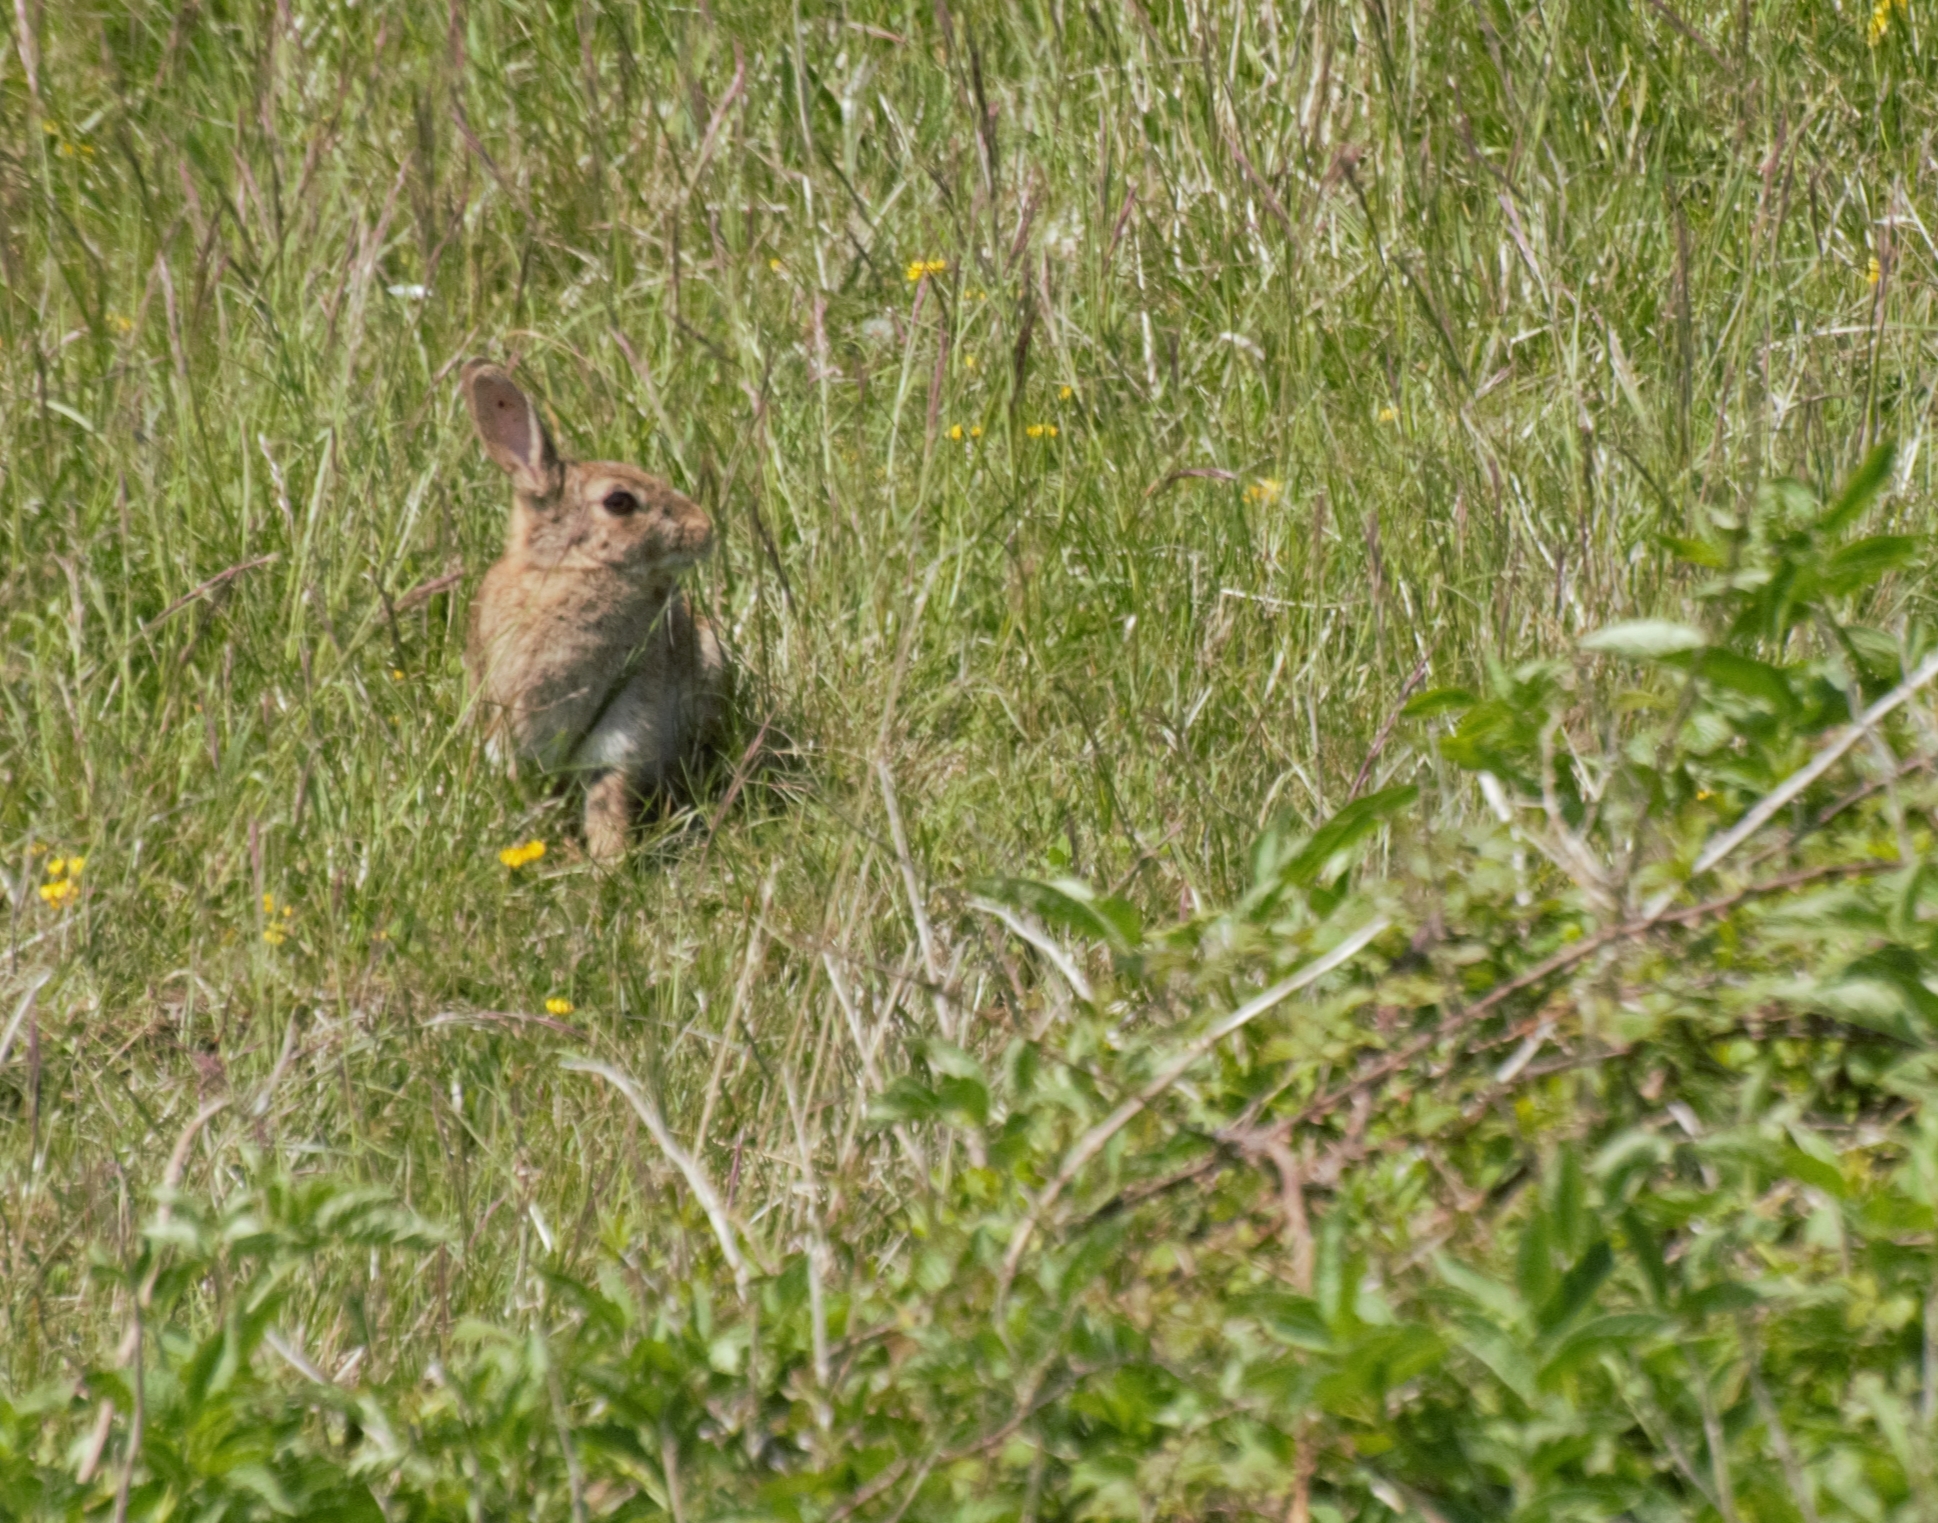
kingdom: Animalia
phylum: Chordata
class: Mammalia
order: Lagomorpha
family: Leporidae
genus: Oryctolagus
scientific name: Oryctolagus cuniculus
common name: European rabbit
